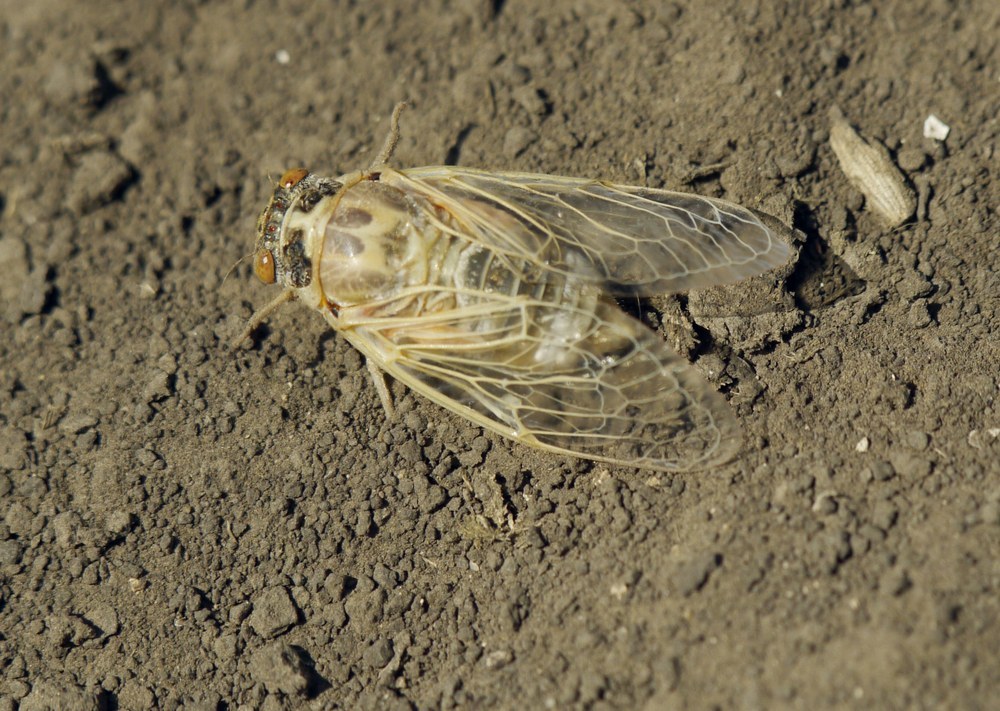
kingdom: Animalia
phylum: Arthropoda
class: Insecta
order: Hemiptera
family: Cicadidae
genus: Cicadatra
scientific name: Cicadatra platyptera
